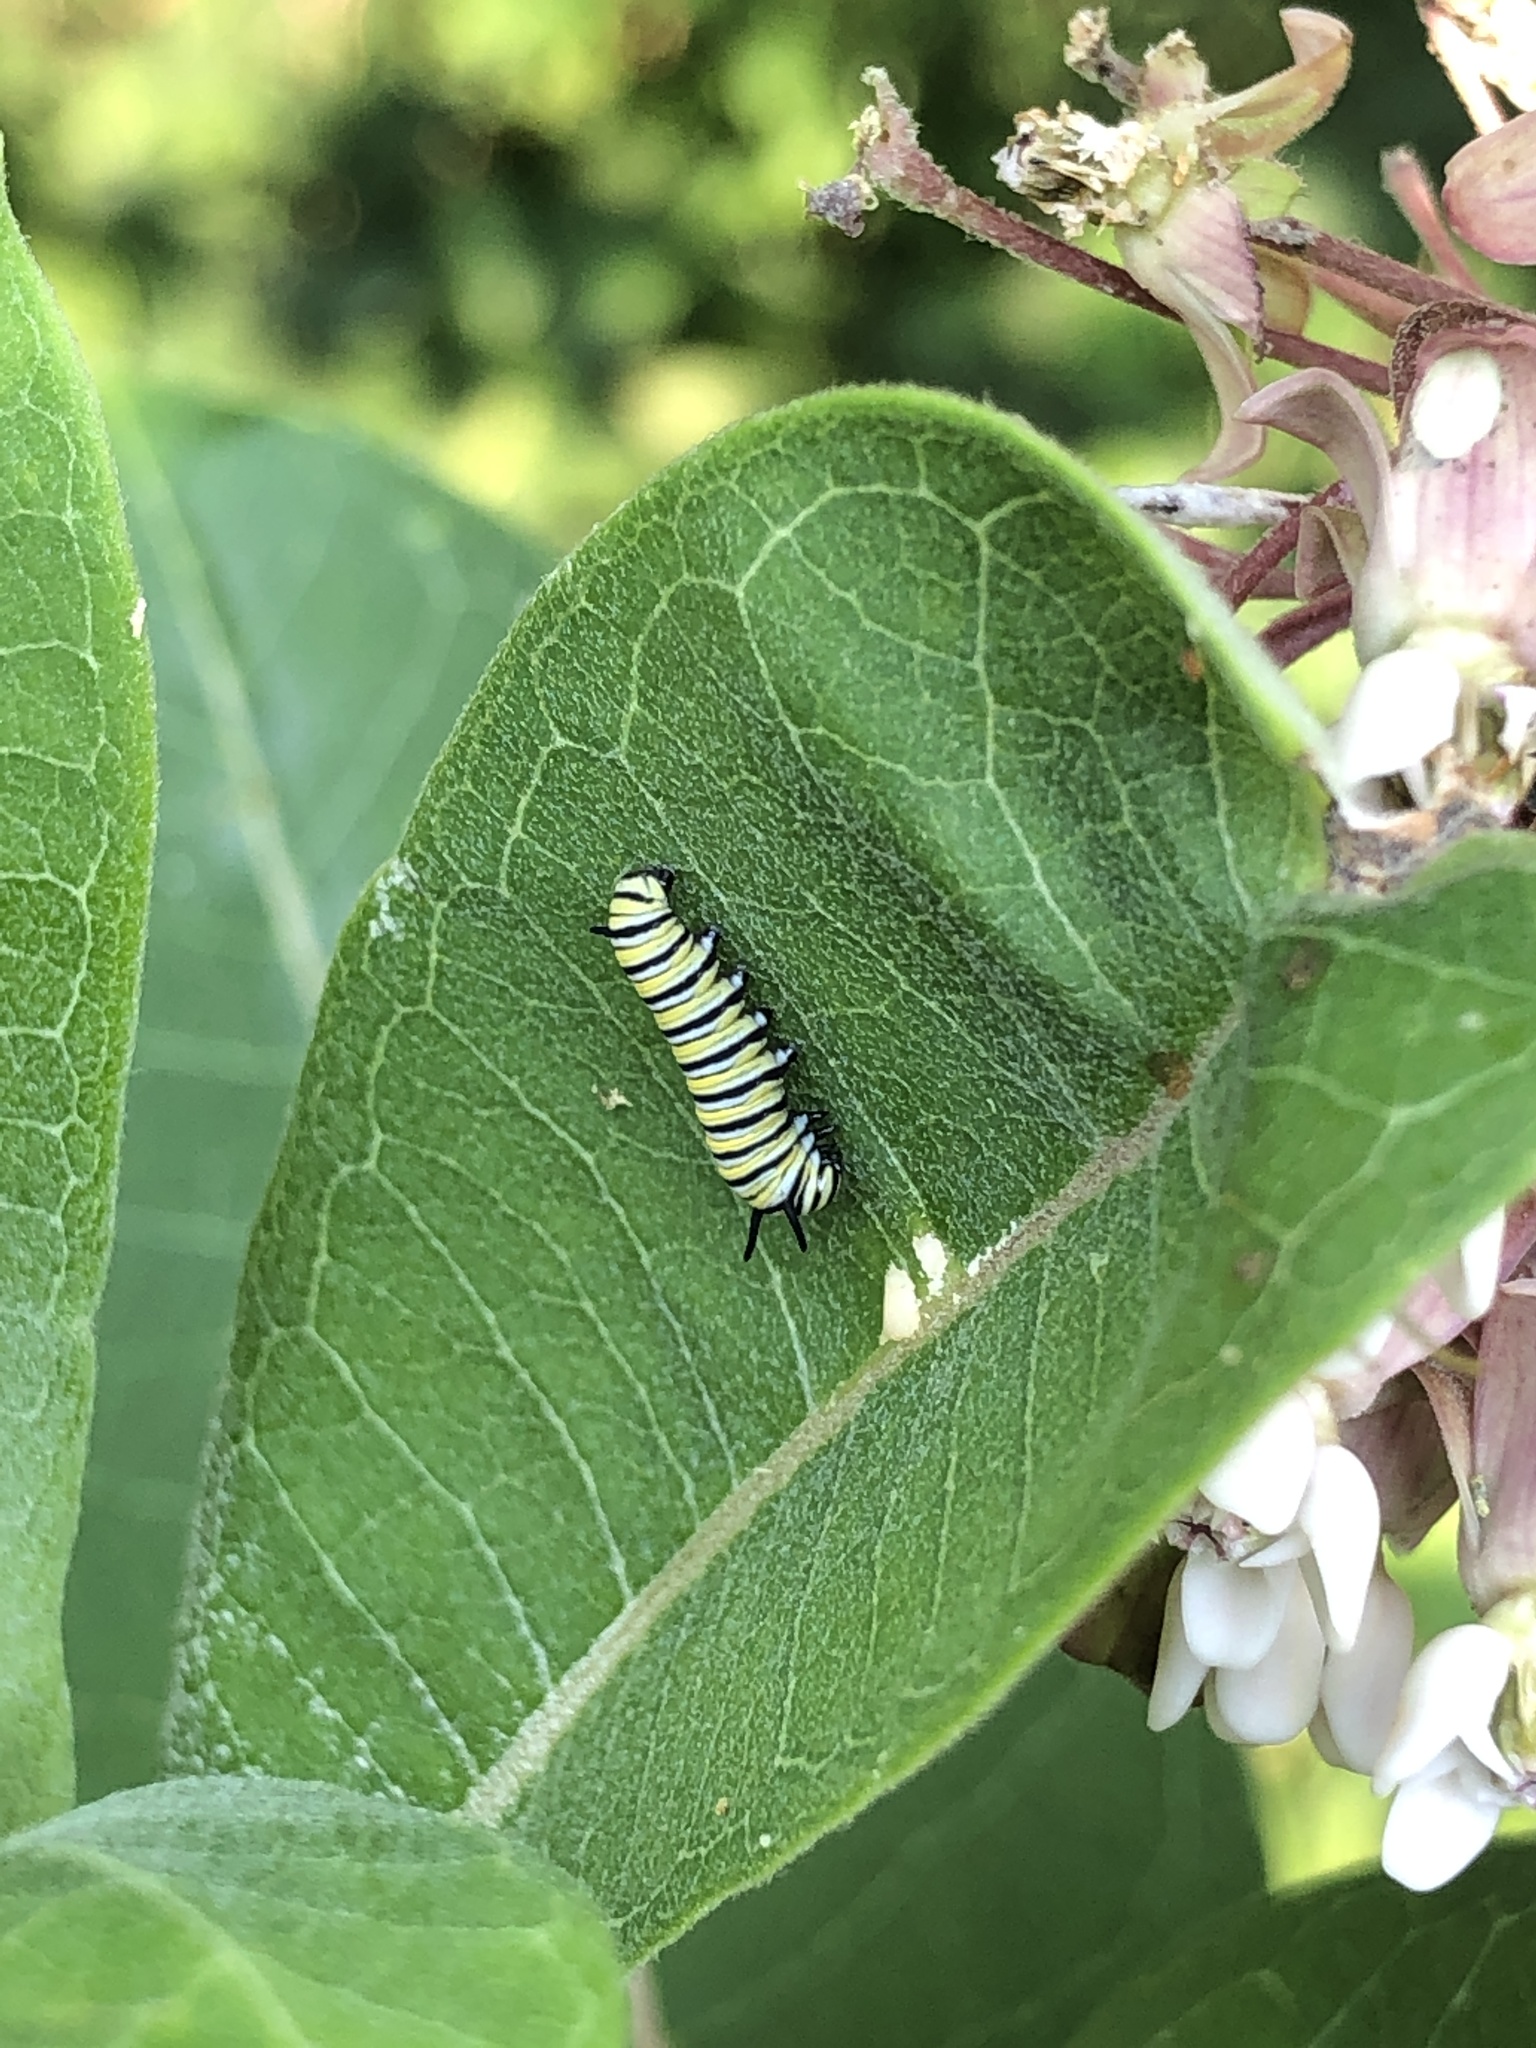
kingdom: Animalia
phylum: Arthropoda
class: Insecta
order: Lepidoptera
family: Nymphalidae
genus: Danaus
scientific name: Danaus plexippus
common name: Monarch
